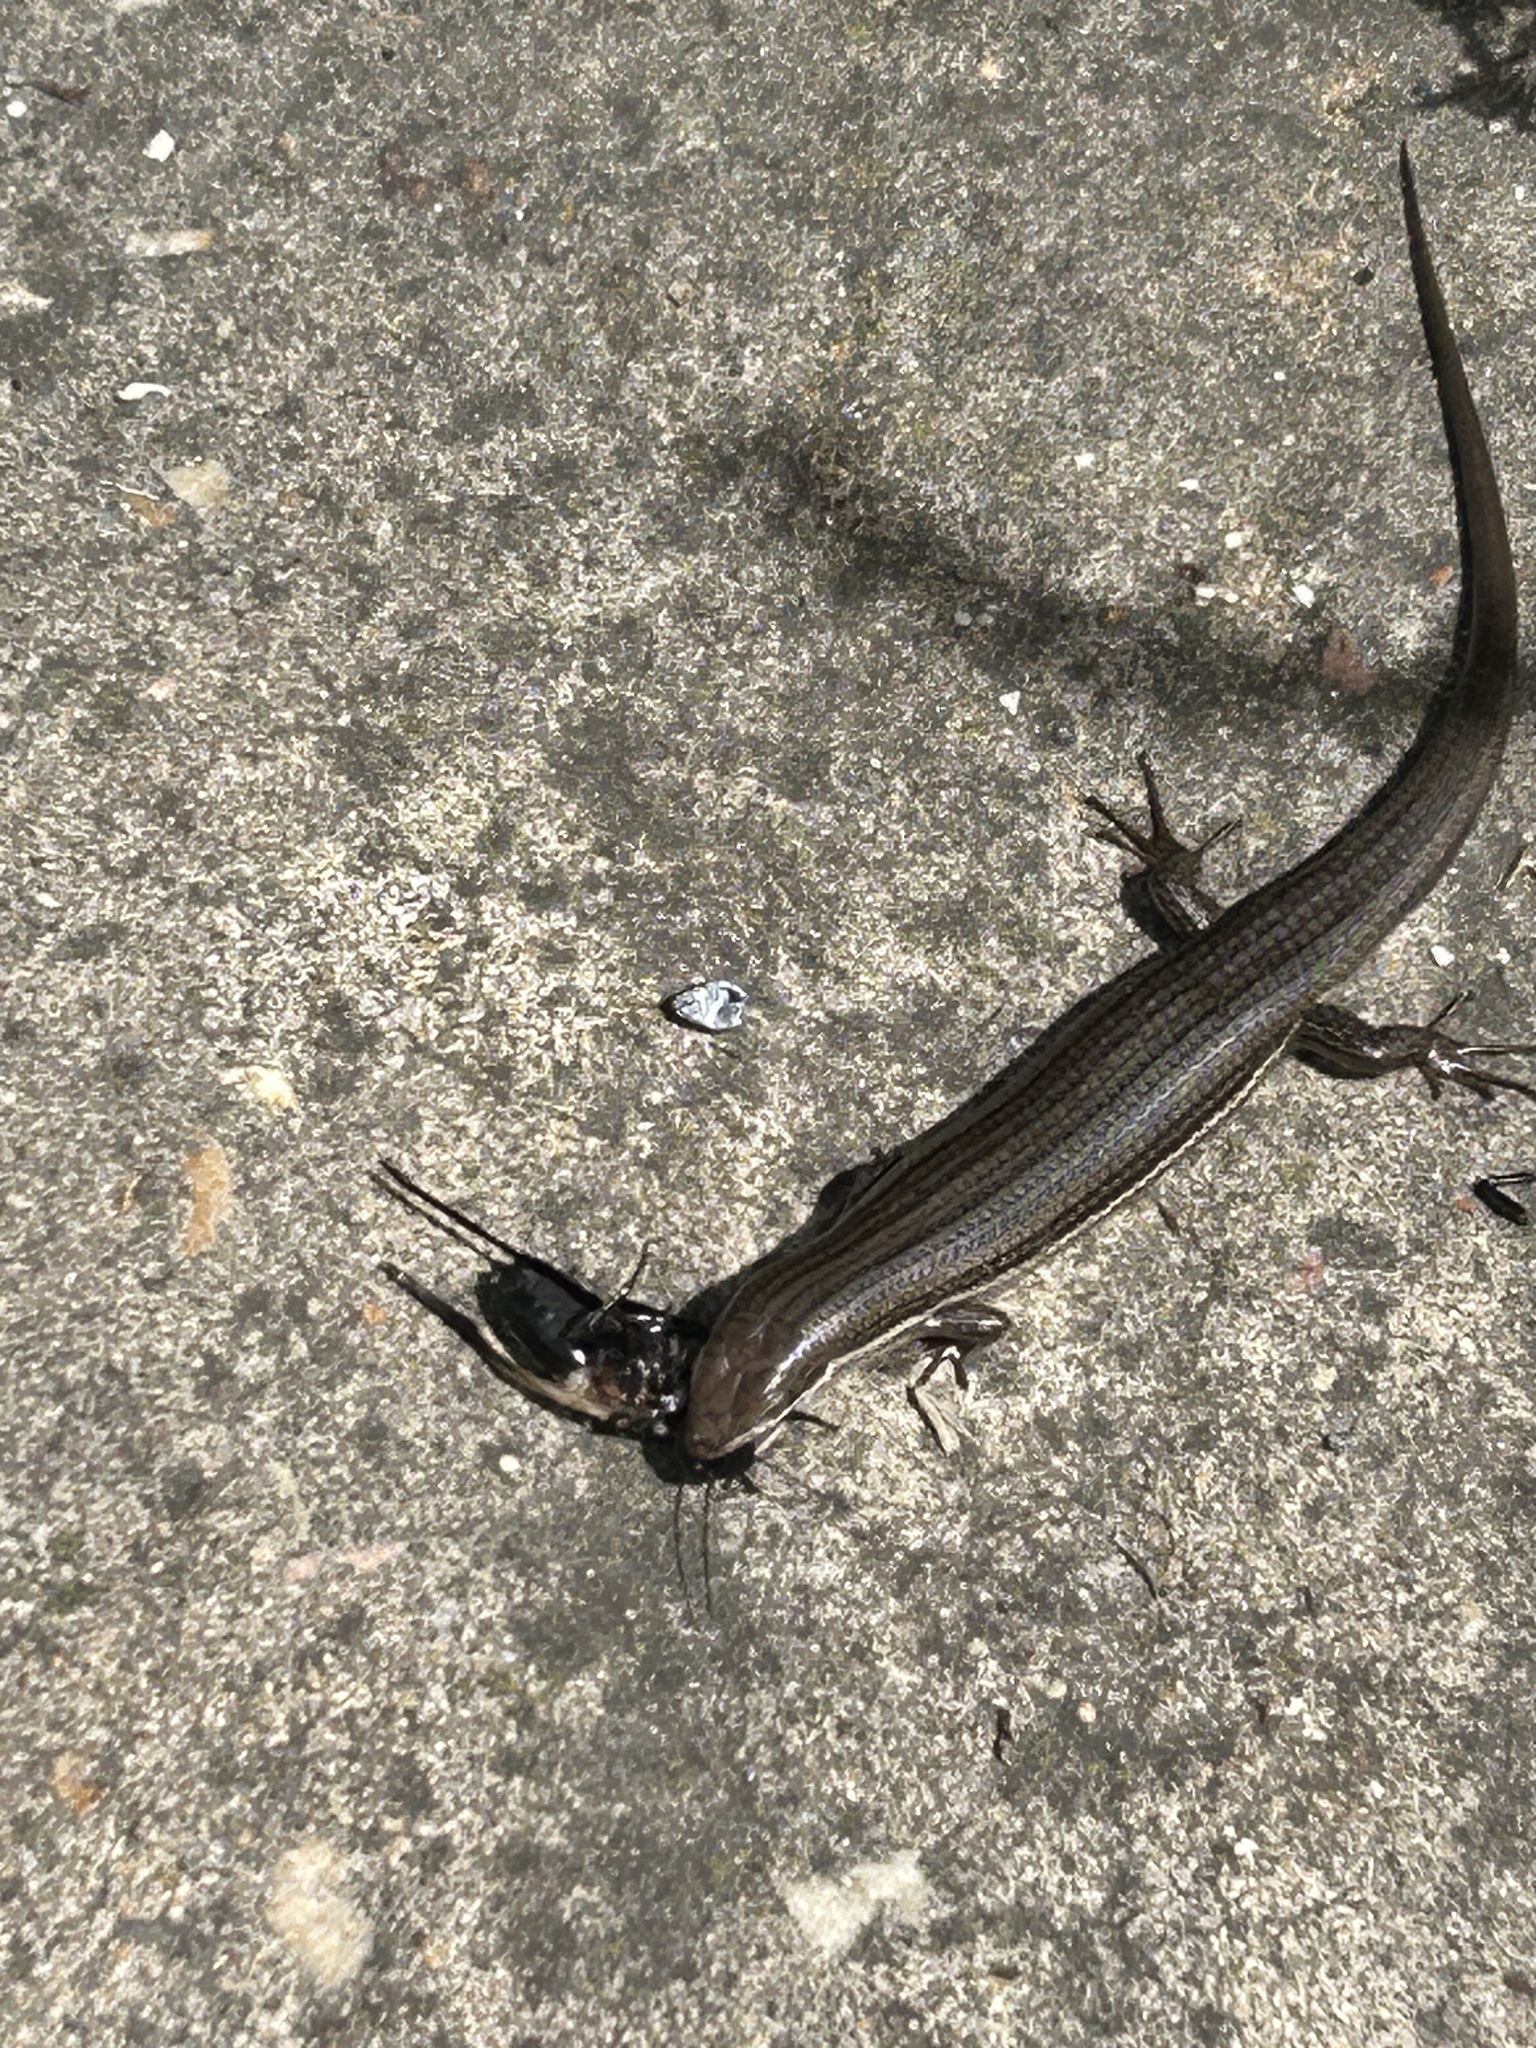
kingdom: Animalia
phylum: Chordata
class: Squamata
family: Scincidae
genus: Trachylepis
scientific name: Trachylepis homalocephala
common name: Red-sided skink
